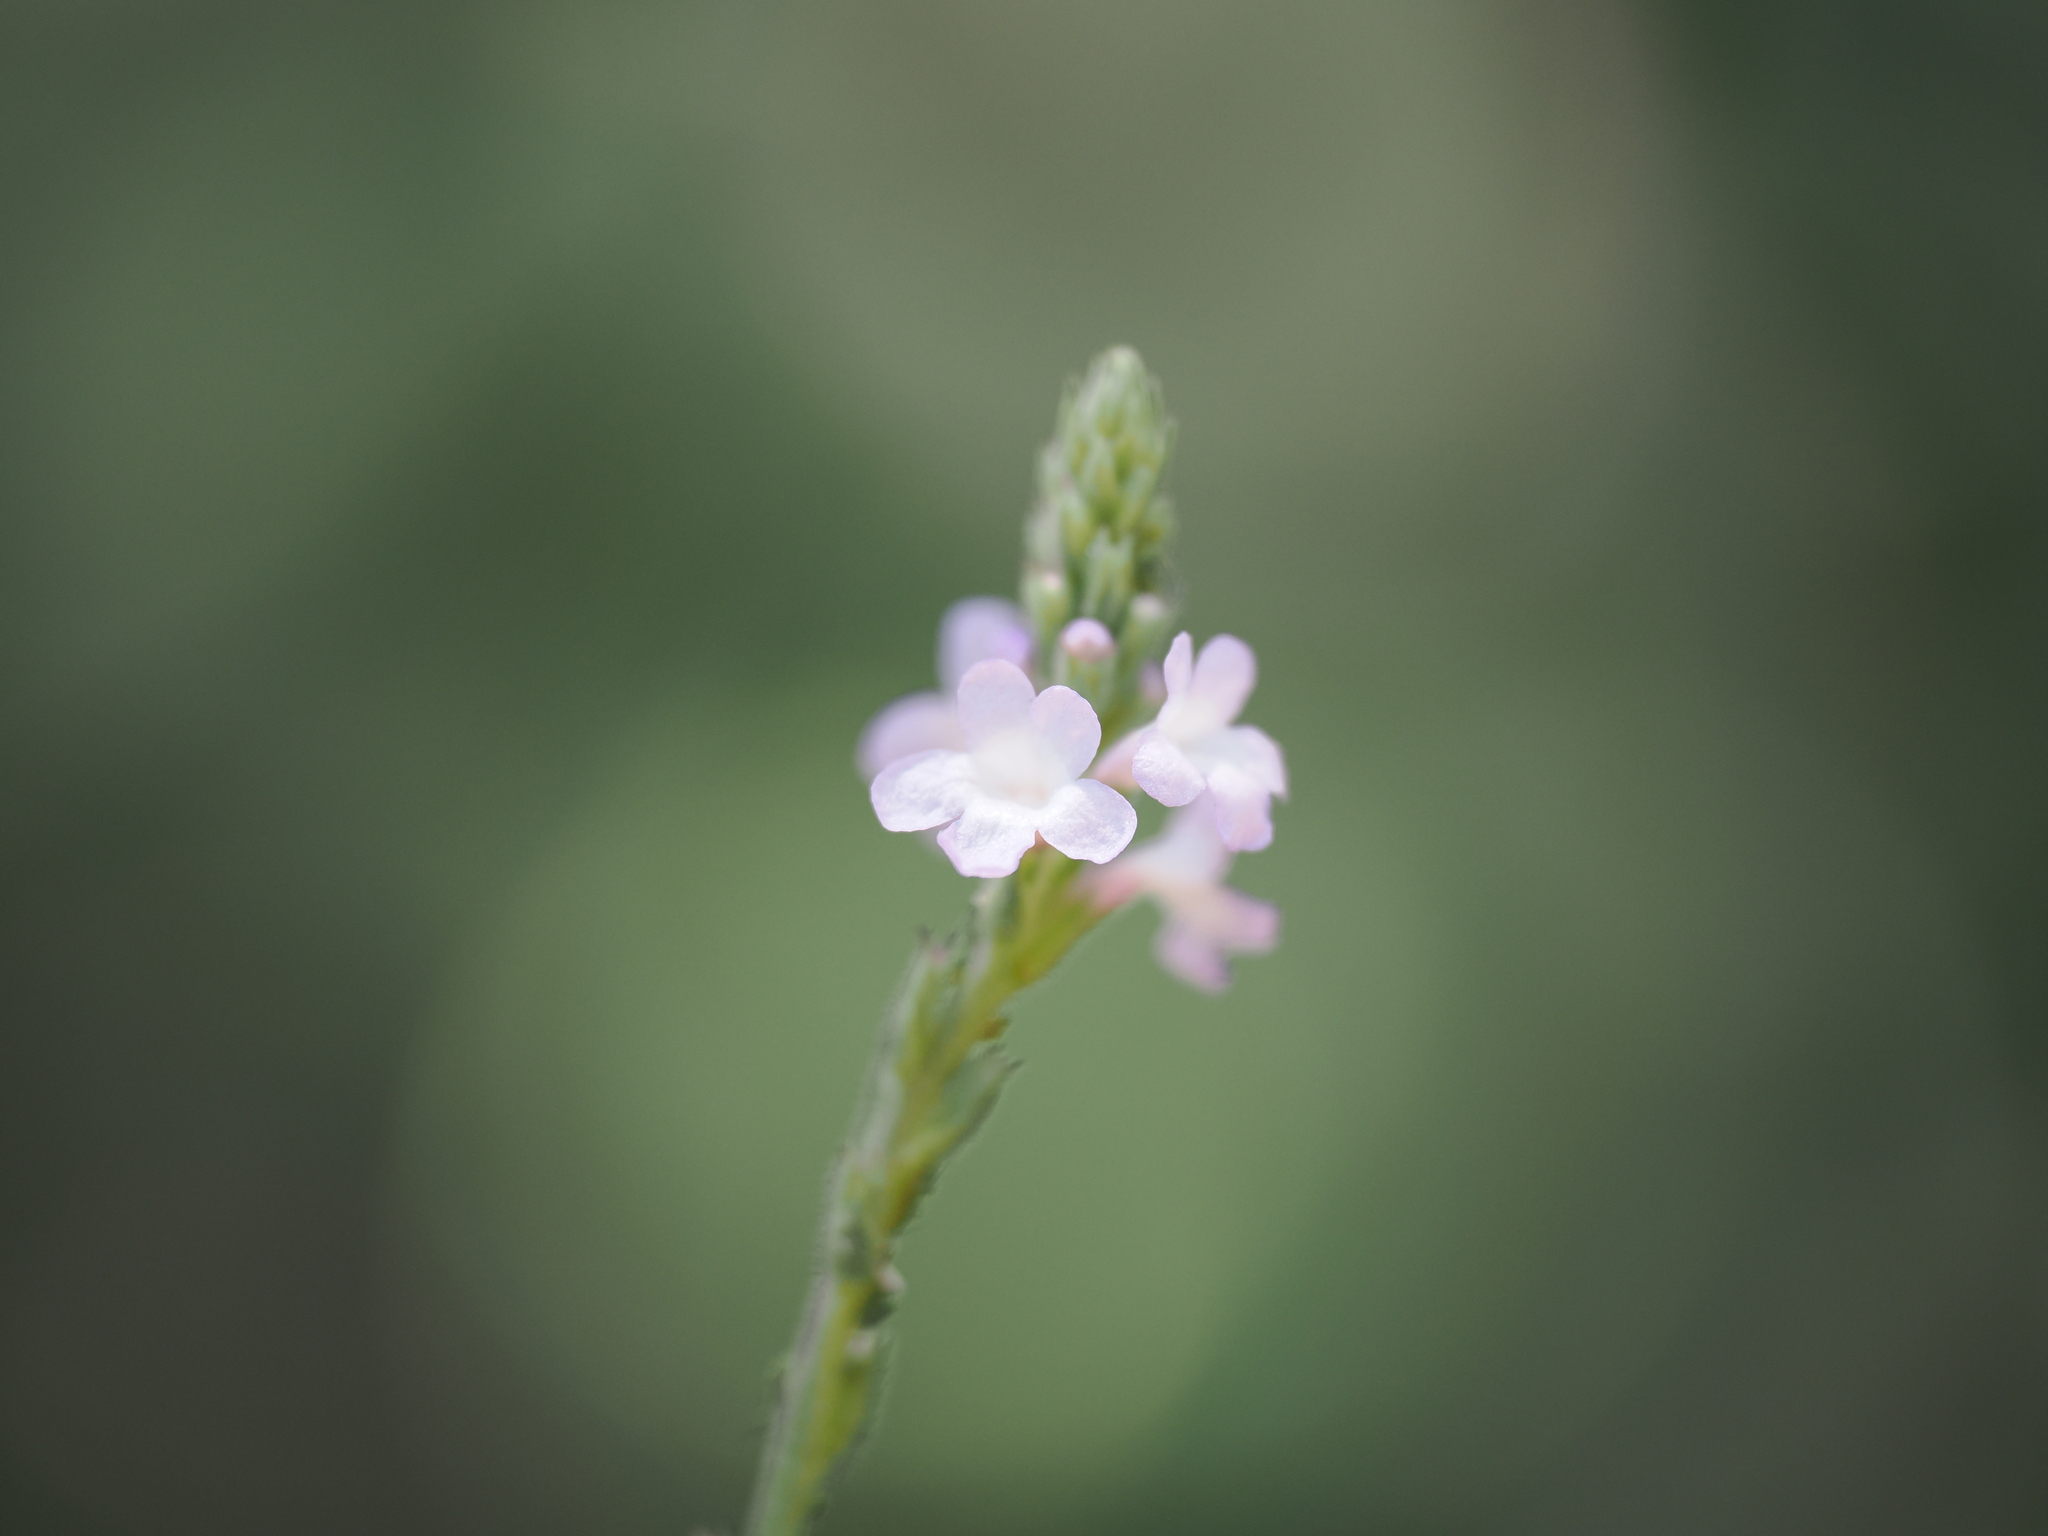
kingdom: Plantae
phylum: Tracheophyta
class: Magnoliopsida
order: Lamiales
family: Verbenaceae
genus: Verbena
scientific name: Verbena officinalis
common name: Vervain
